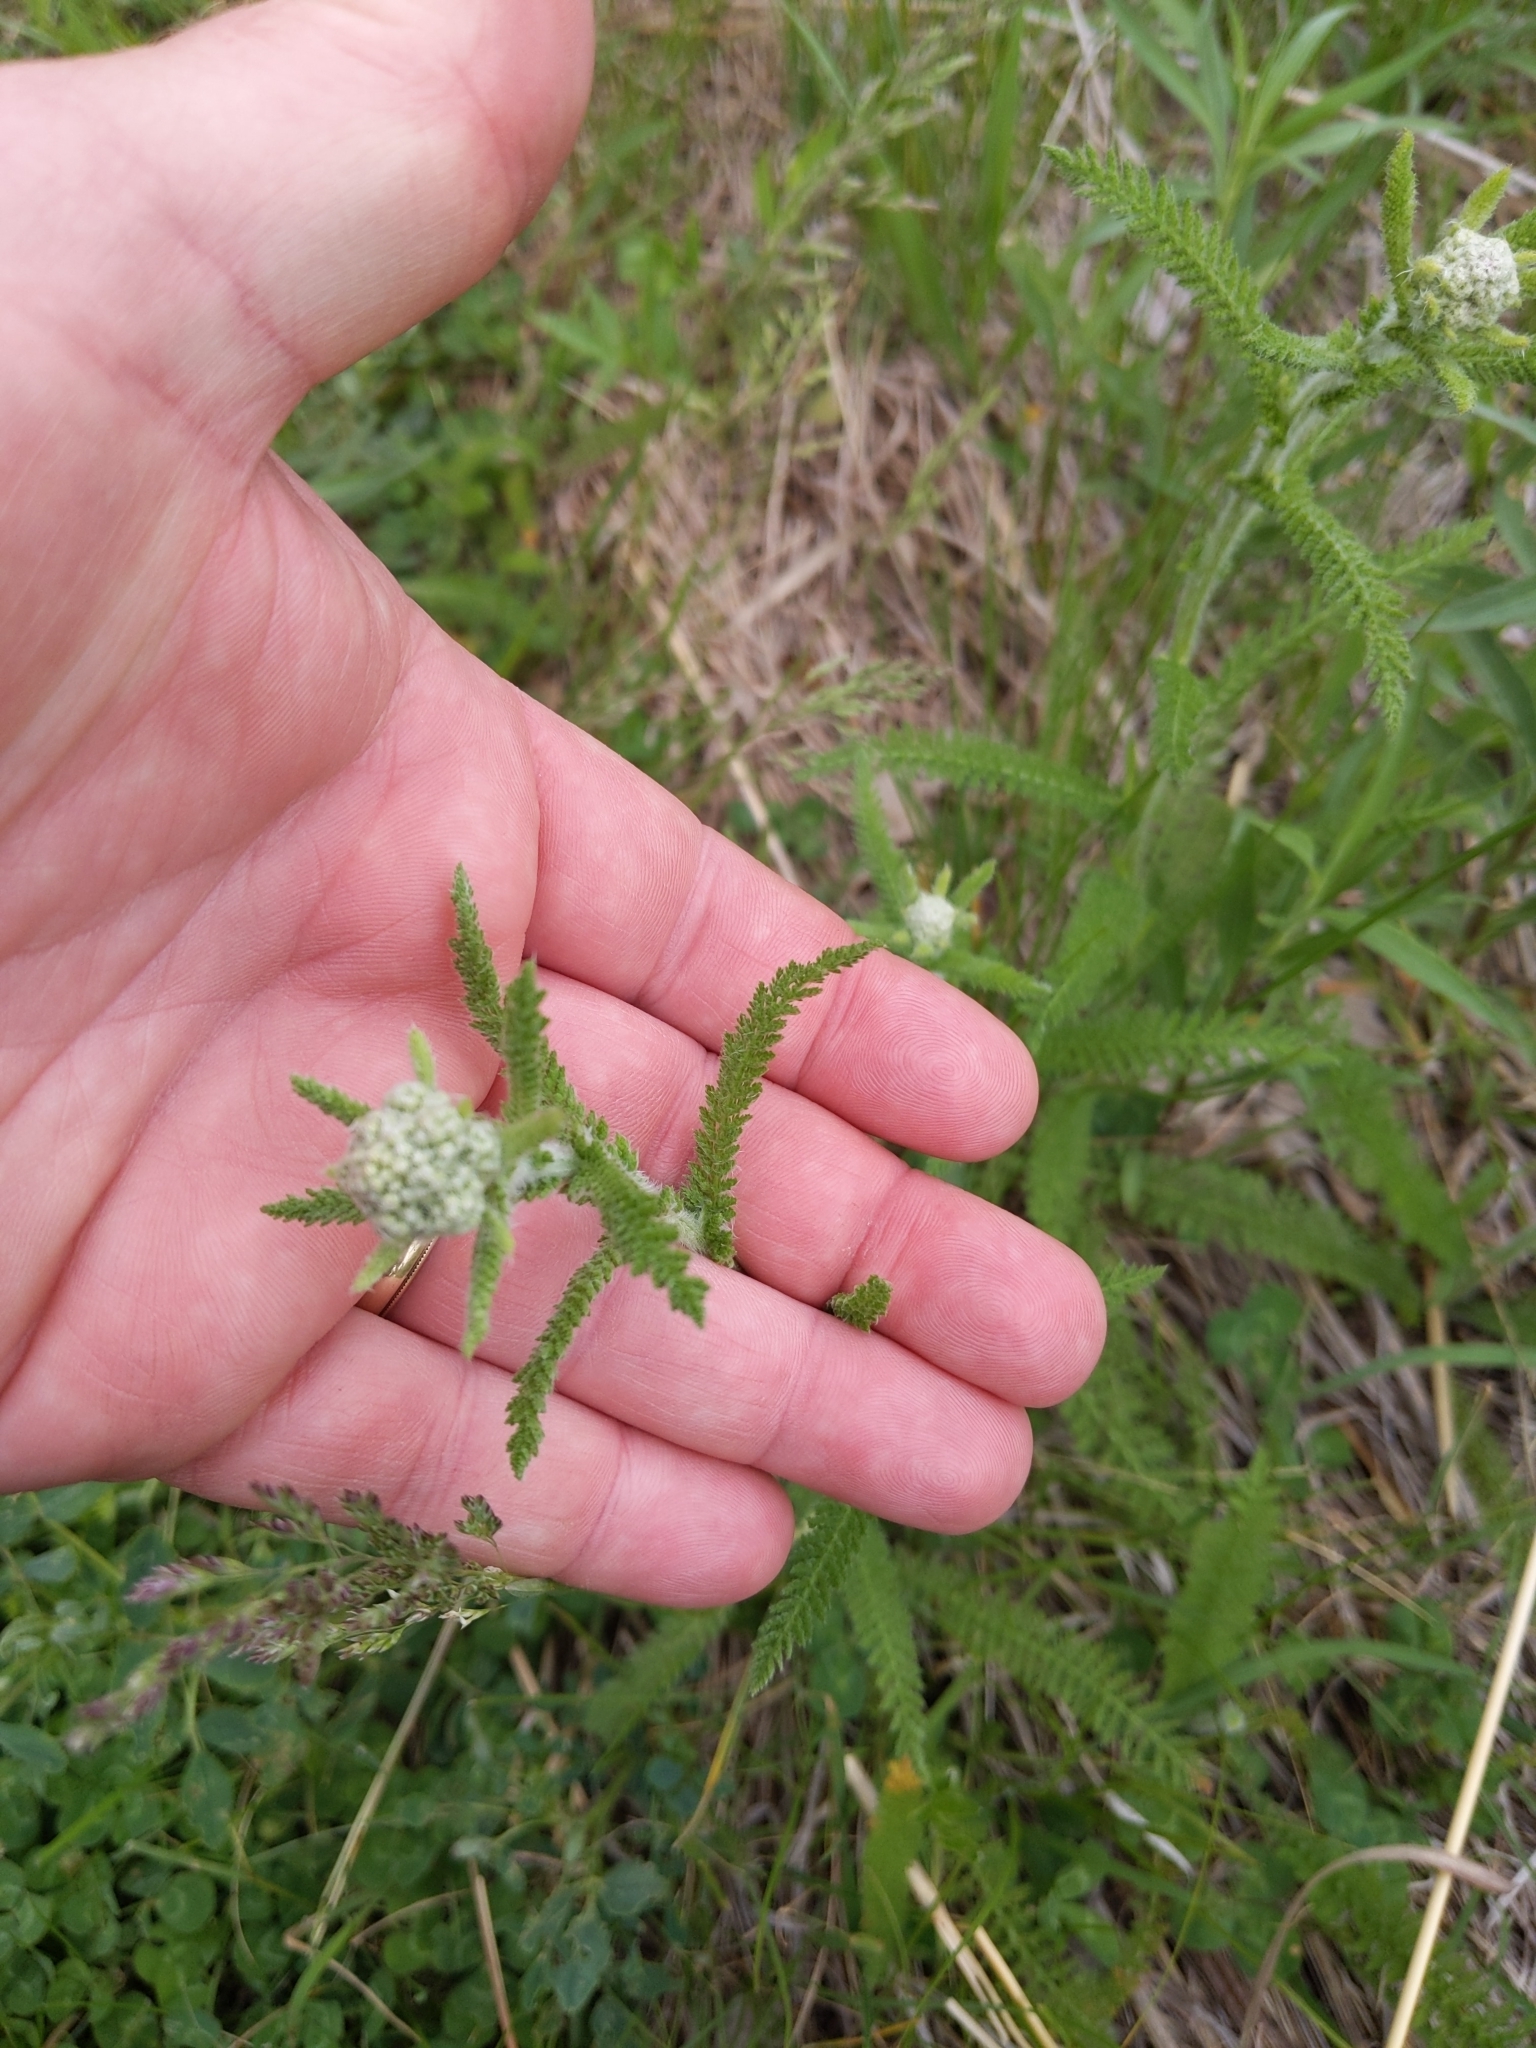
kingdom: Plantae
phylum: Tracheophyta
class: Magnoliopsida
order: Asterales
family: Asteraceae
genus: Achillea
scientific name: Achillea millefolium
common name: Yarrow
